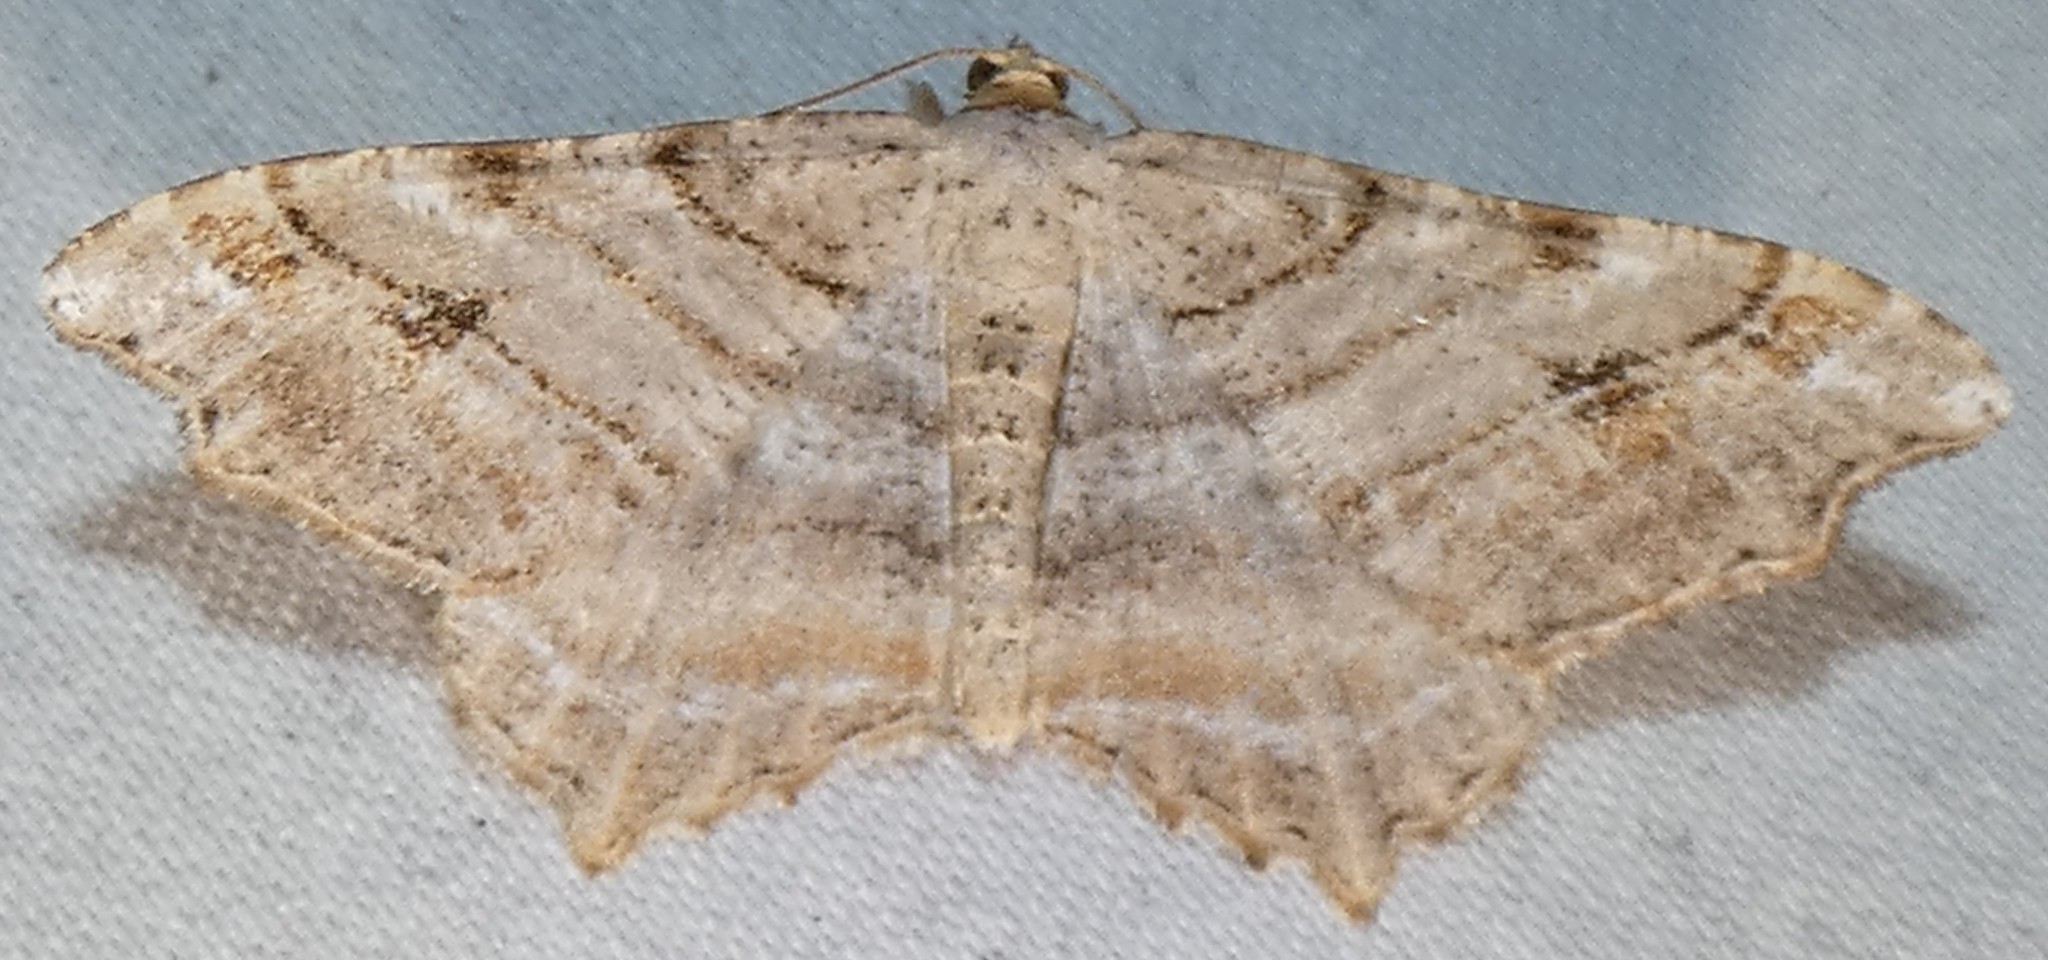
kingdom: Animalia
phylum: Arthropoda
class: Insecta
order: Lepidoptera
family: Geometridae
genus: Macaria
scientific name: Macaria multilineata
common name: Many-lined angle
